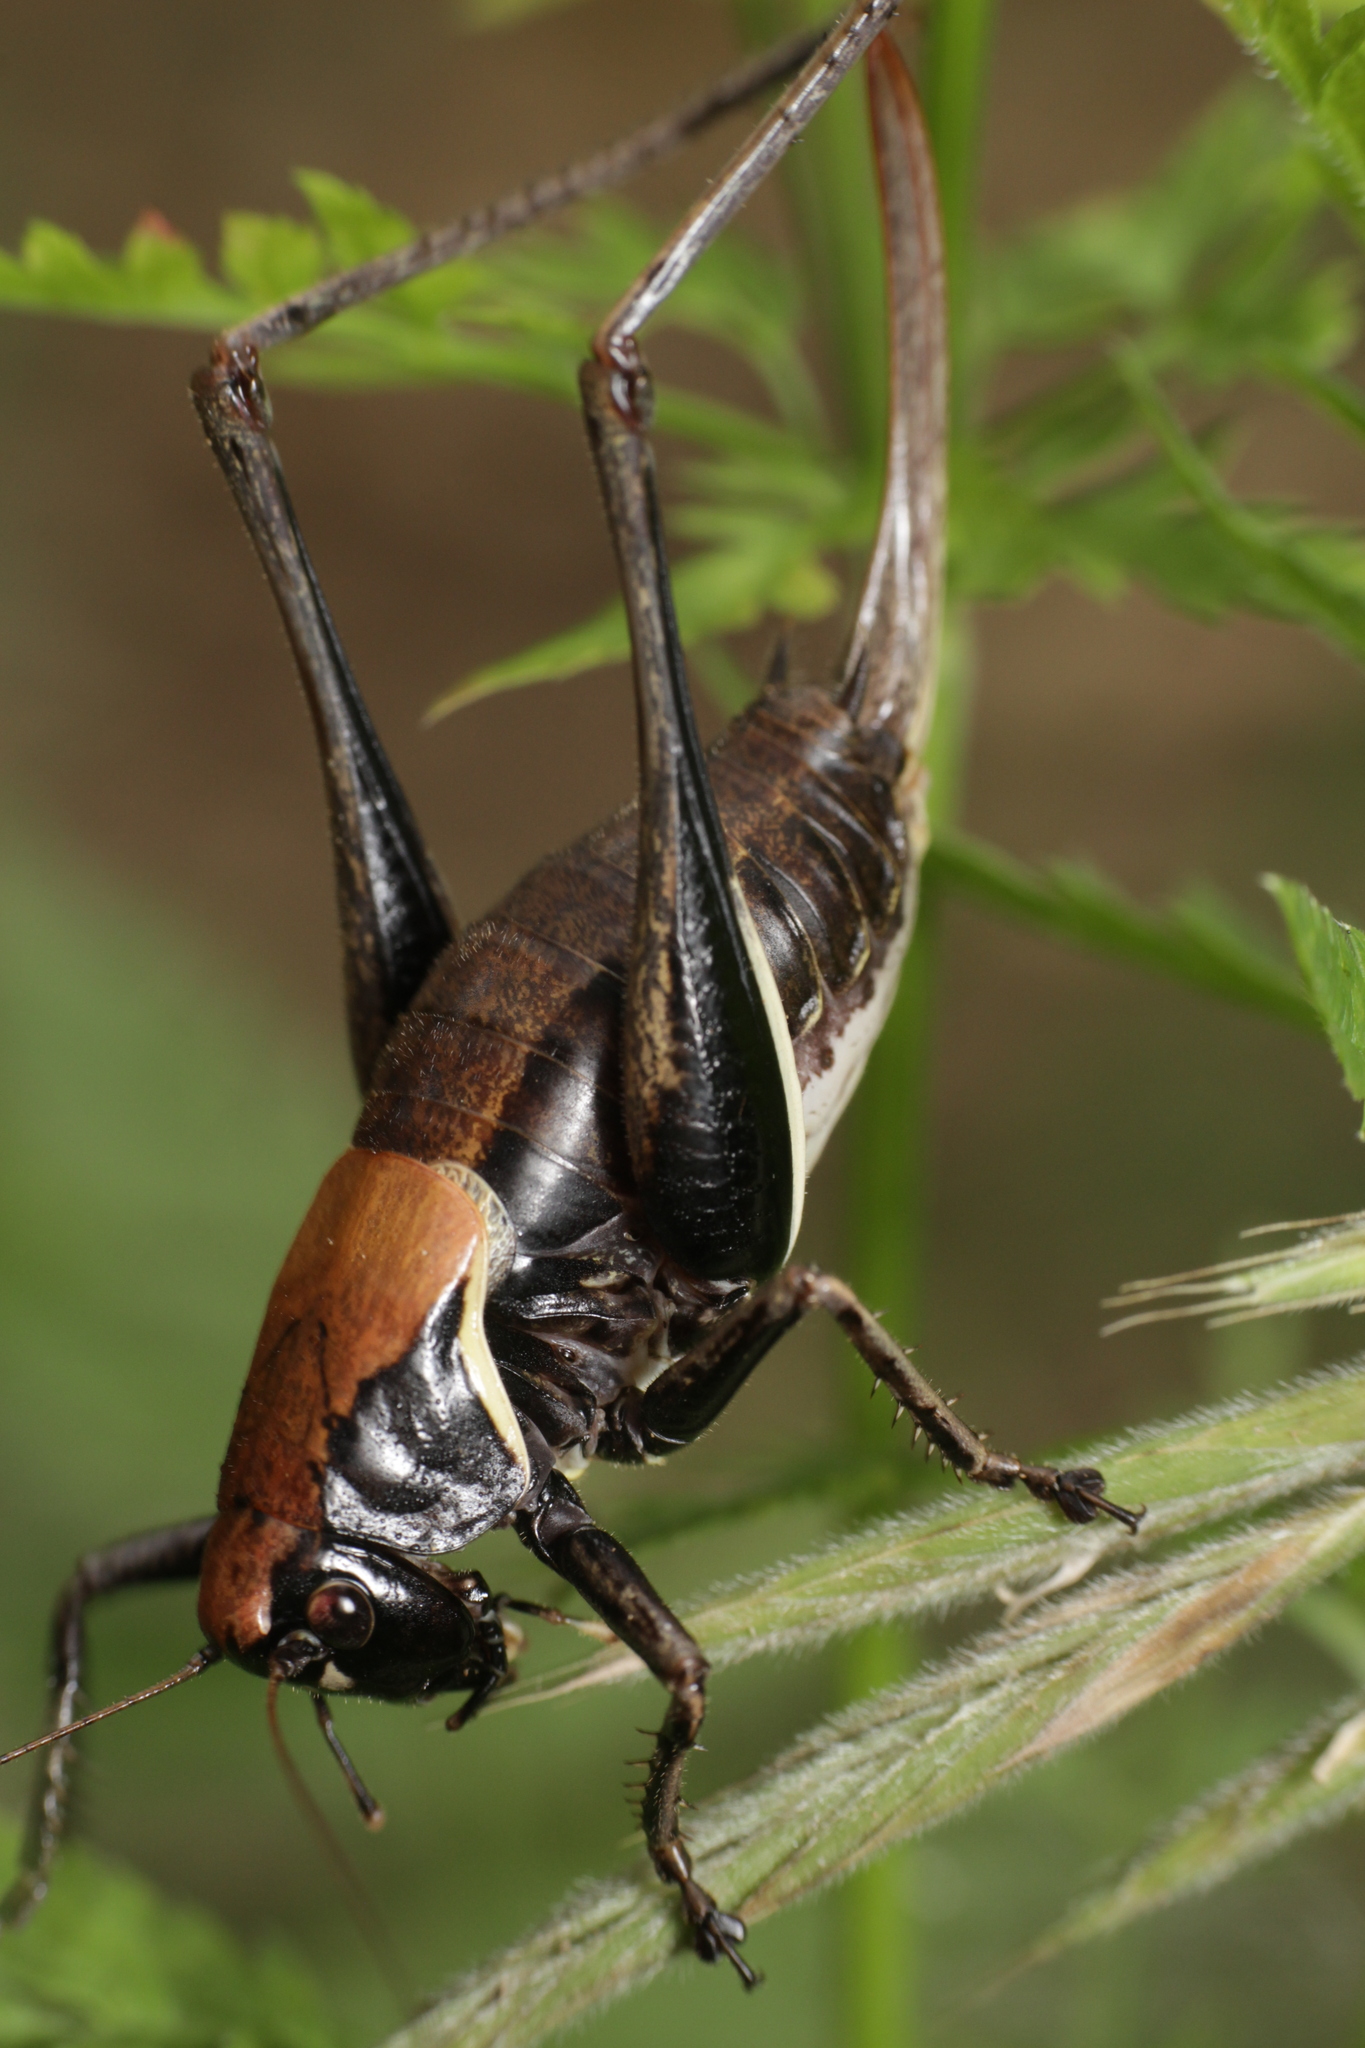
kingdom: Animalia
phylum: Arthropoda
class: Insecta
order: Orthoptera
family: Tettigoniidae
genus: Pholidoptera
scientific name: Pholidoptera aptera
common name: Alpine dark bush-cricket
